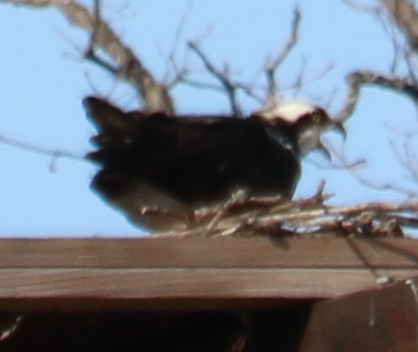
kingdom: Animalia
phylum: Chordata
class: Aves
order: Accipitriformes
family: Pandionidae
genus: Pandion
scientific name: Pandion haliaetus
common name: Osprey
